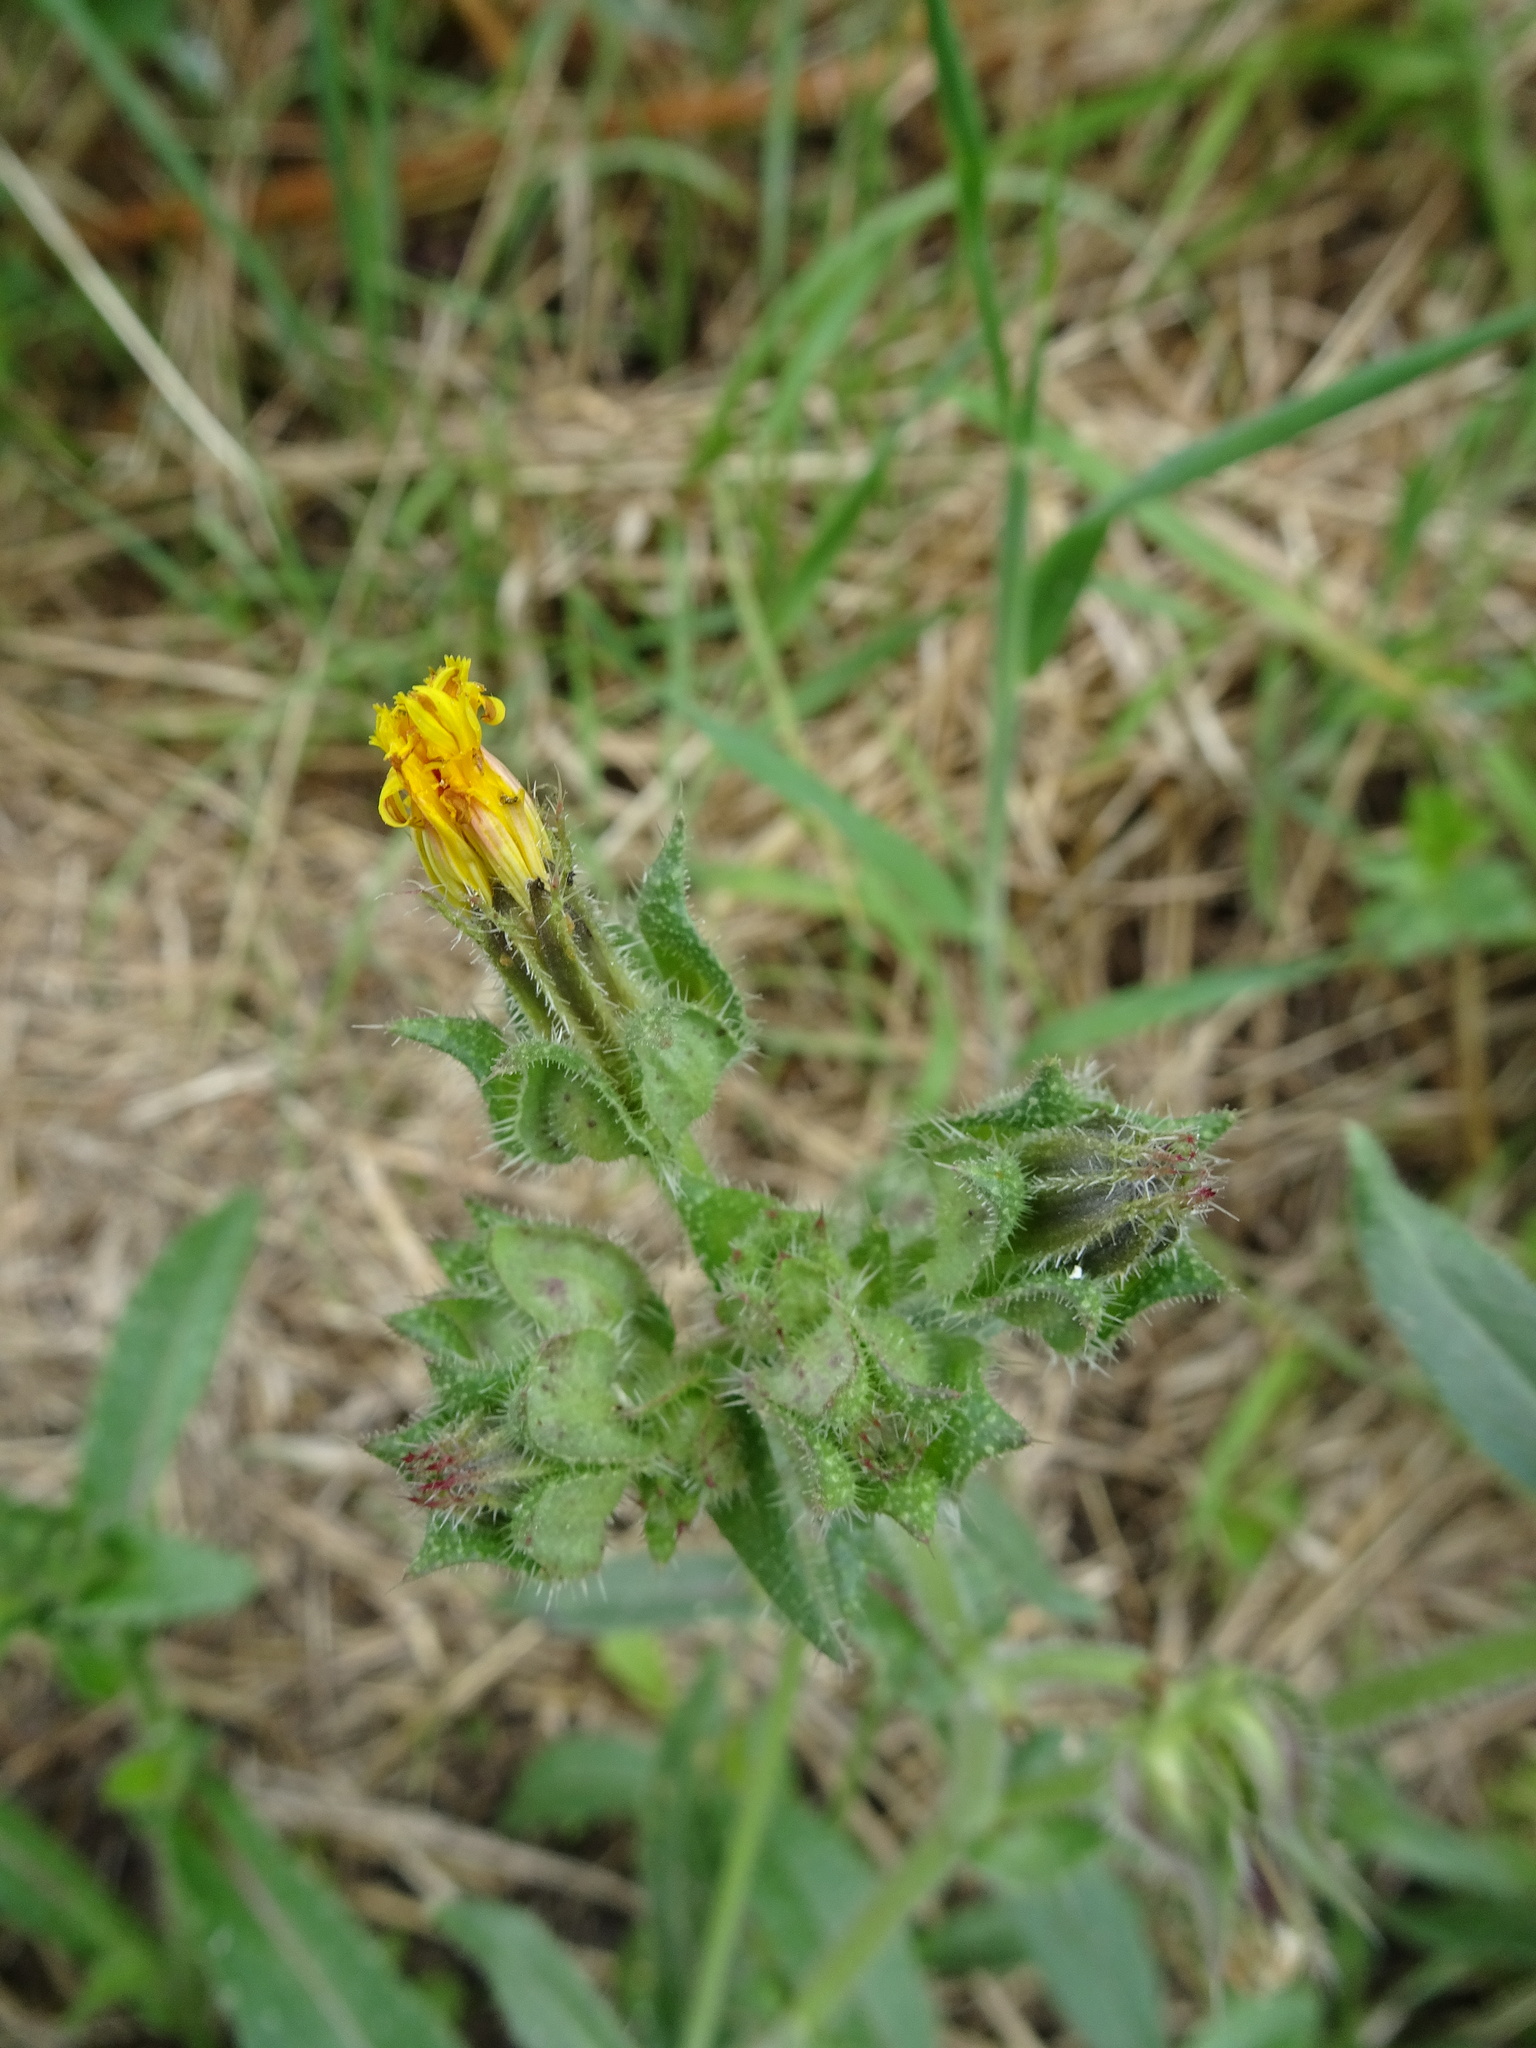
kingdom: Plantae
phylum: Tracheophyta
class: Magnoliopsida
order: Asterales
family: Asteraceae
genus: Helminthotheca
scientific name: Helminthotheca echioides
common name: Ox-tongue
